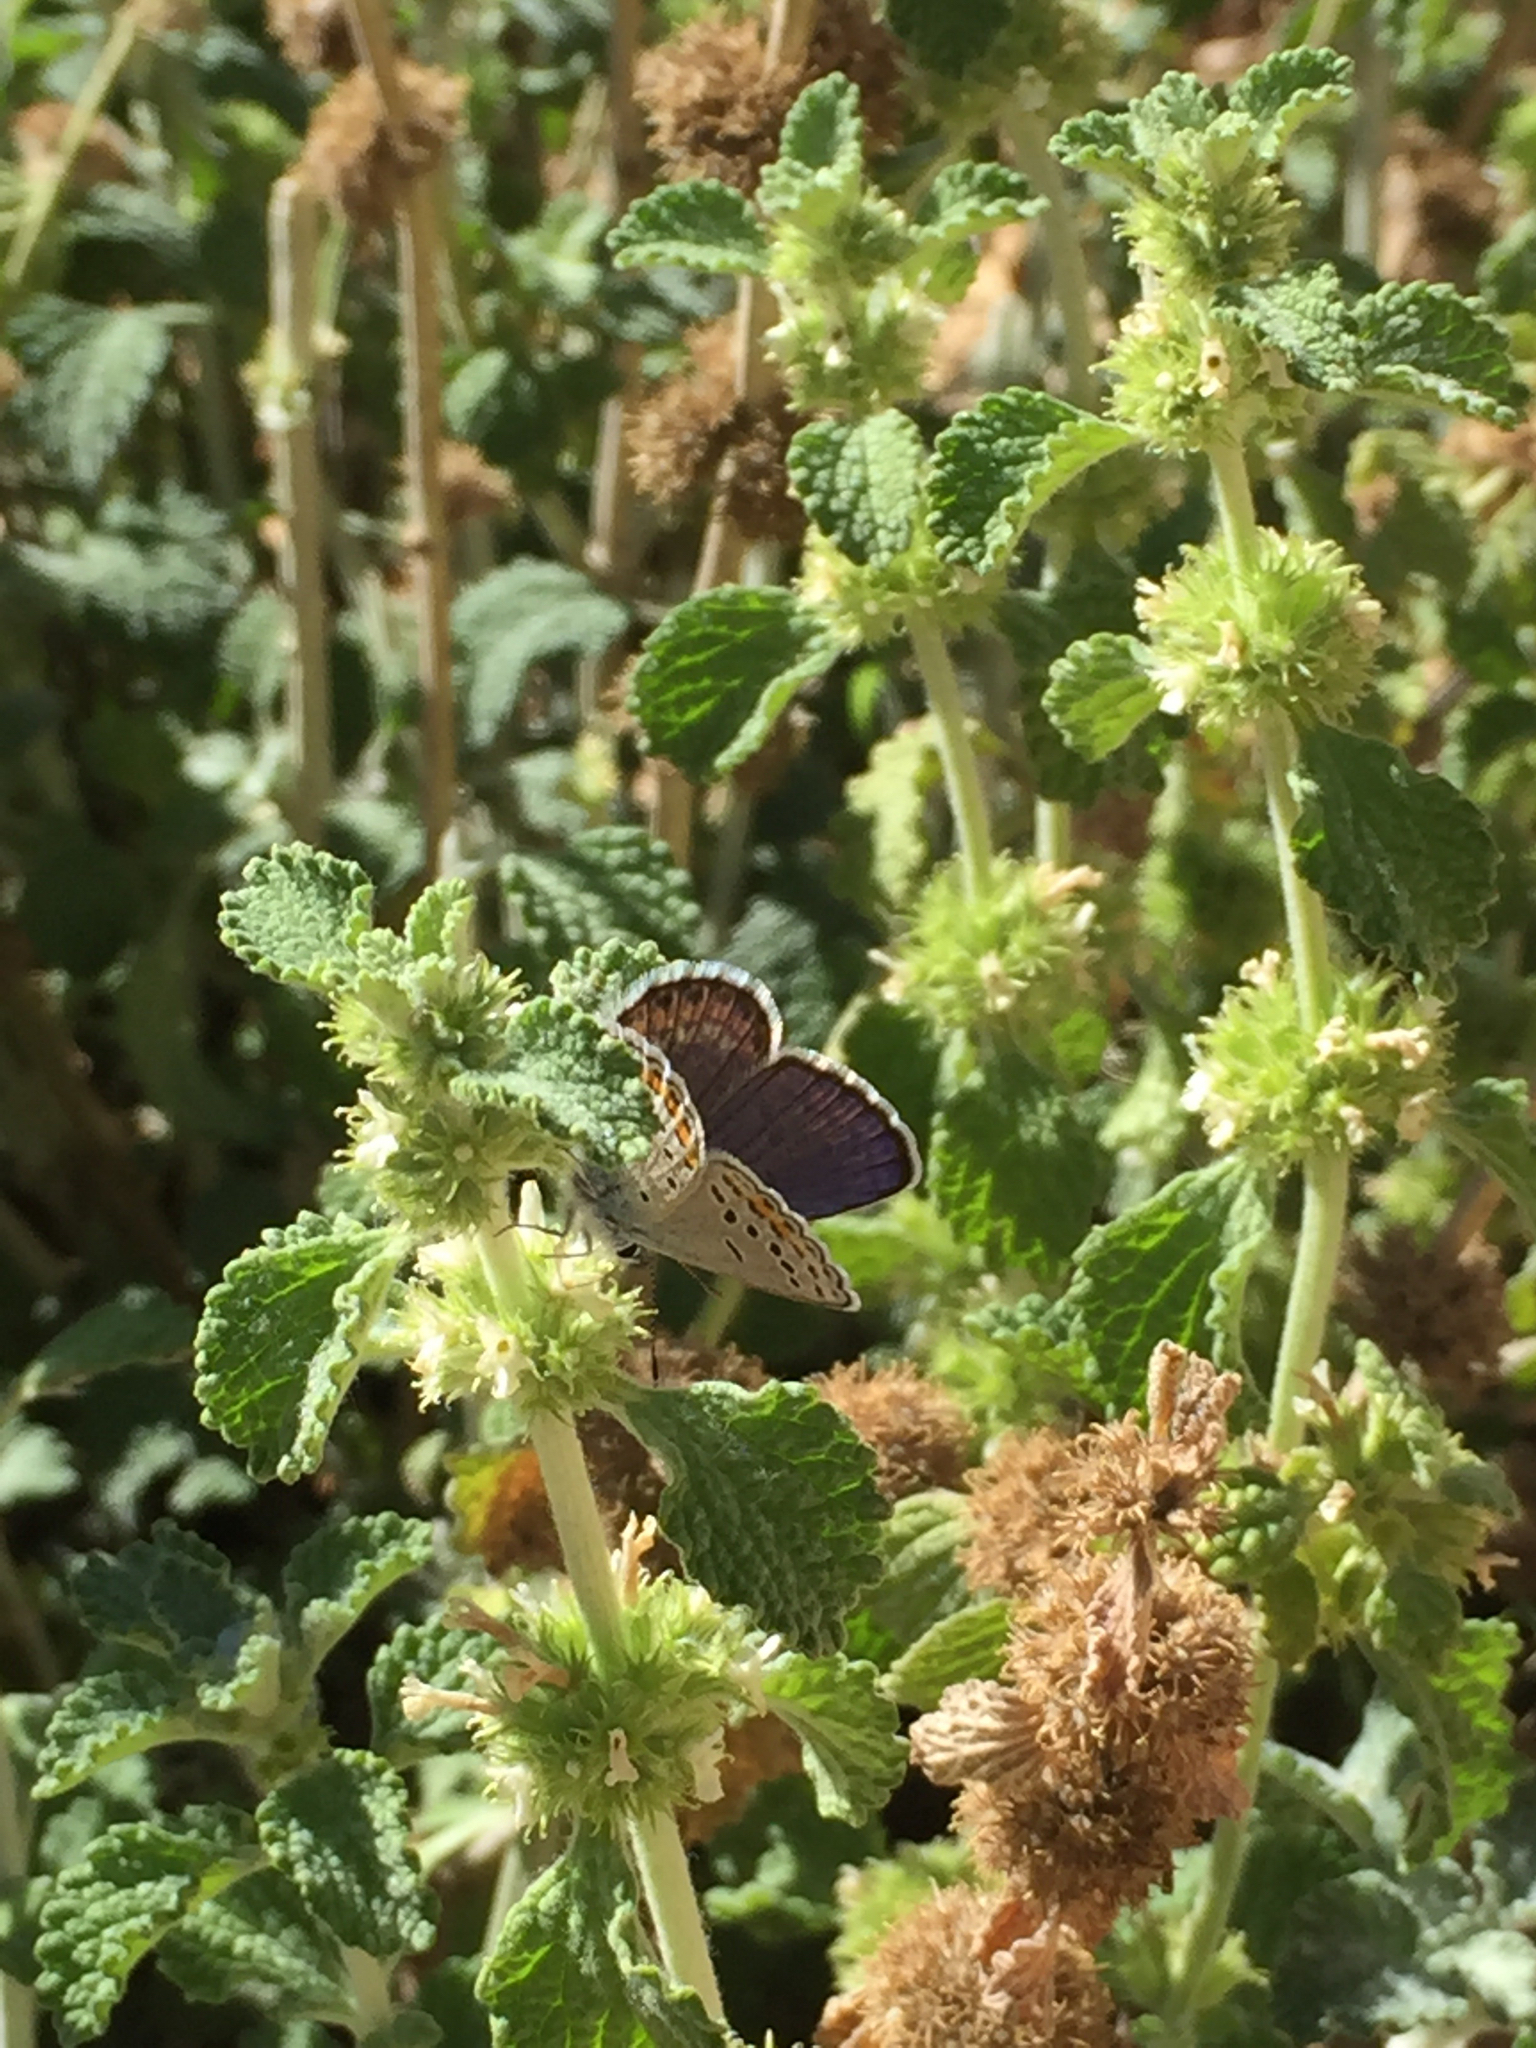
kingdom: Animalia
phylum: Arthropoda
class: Insecta
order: Lepidoptera
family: Lycaenidae
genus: Lycaeides
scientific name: Lycaeides melissa
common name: Melissa blue
